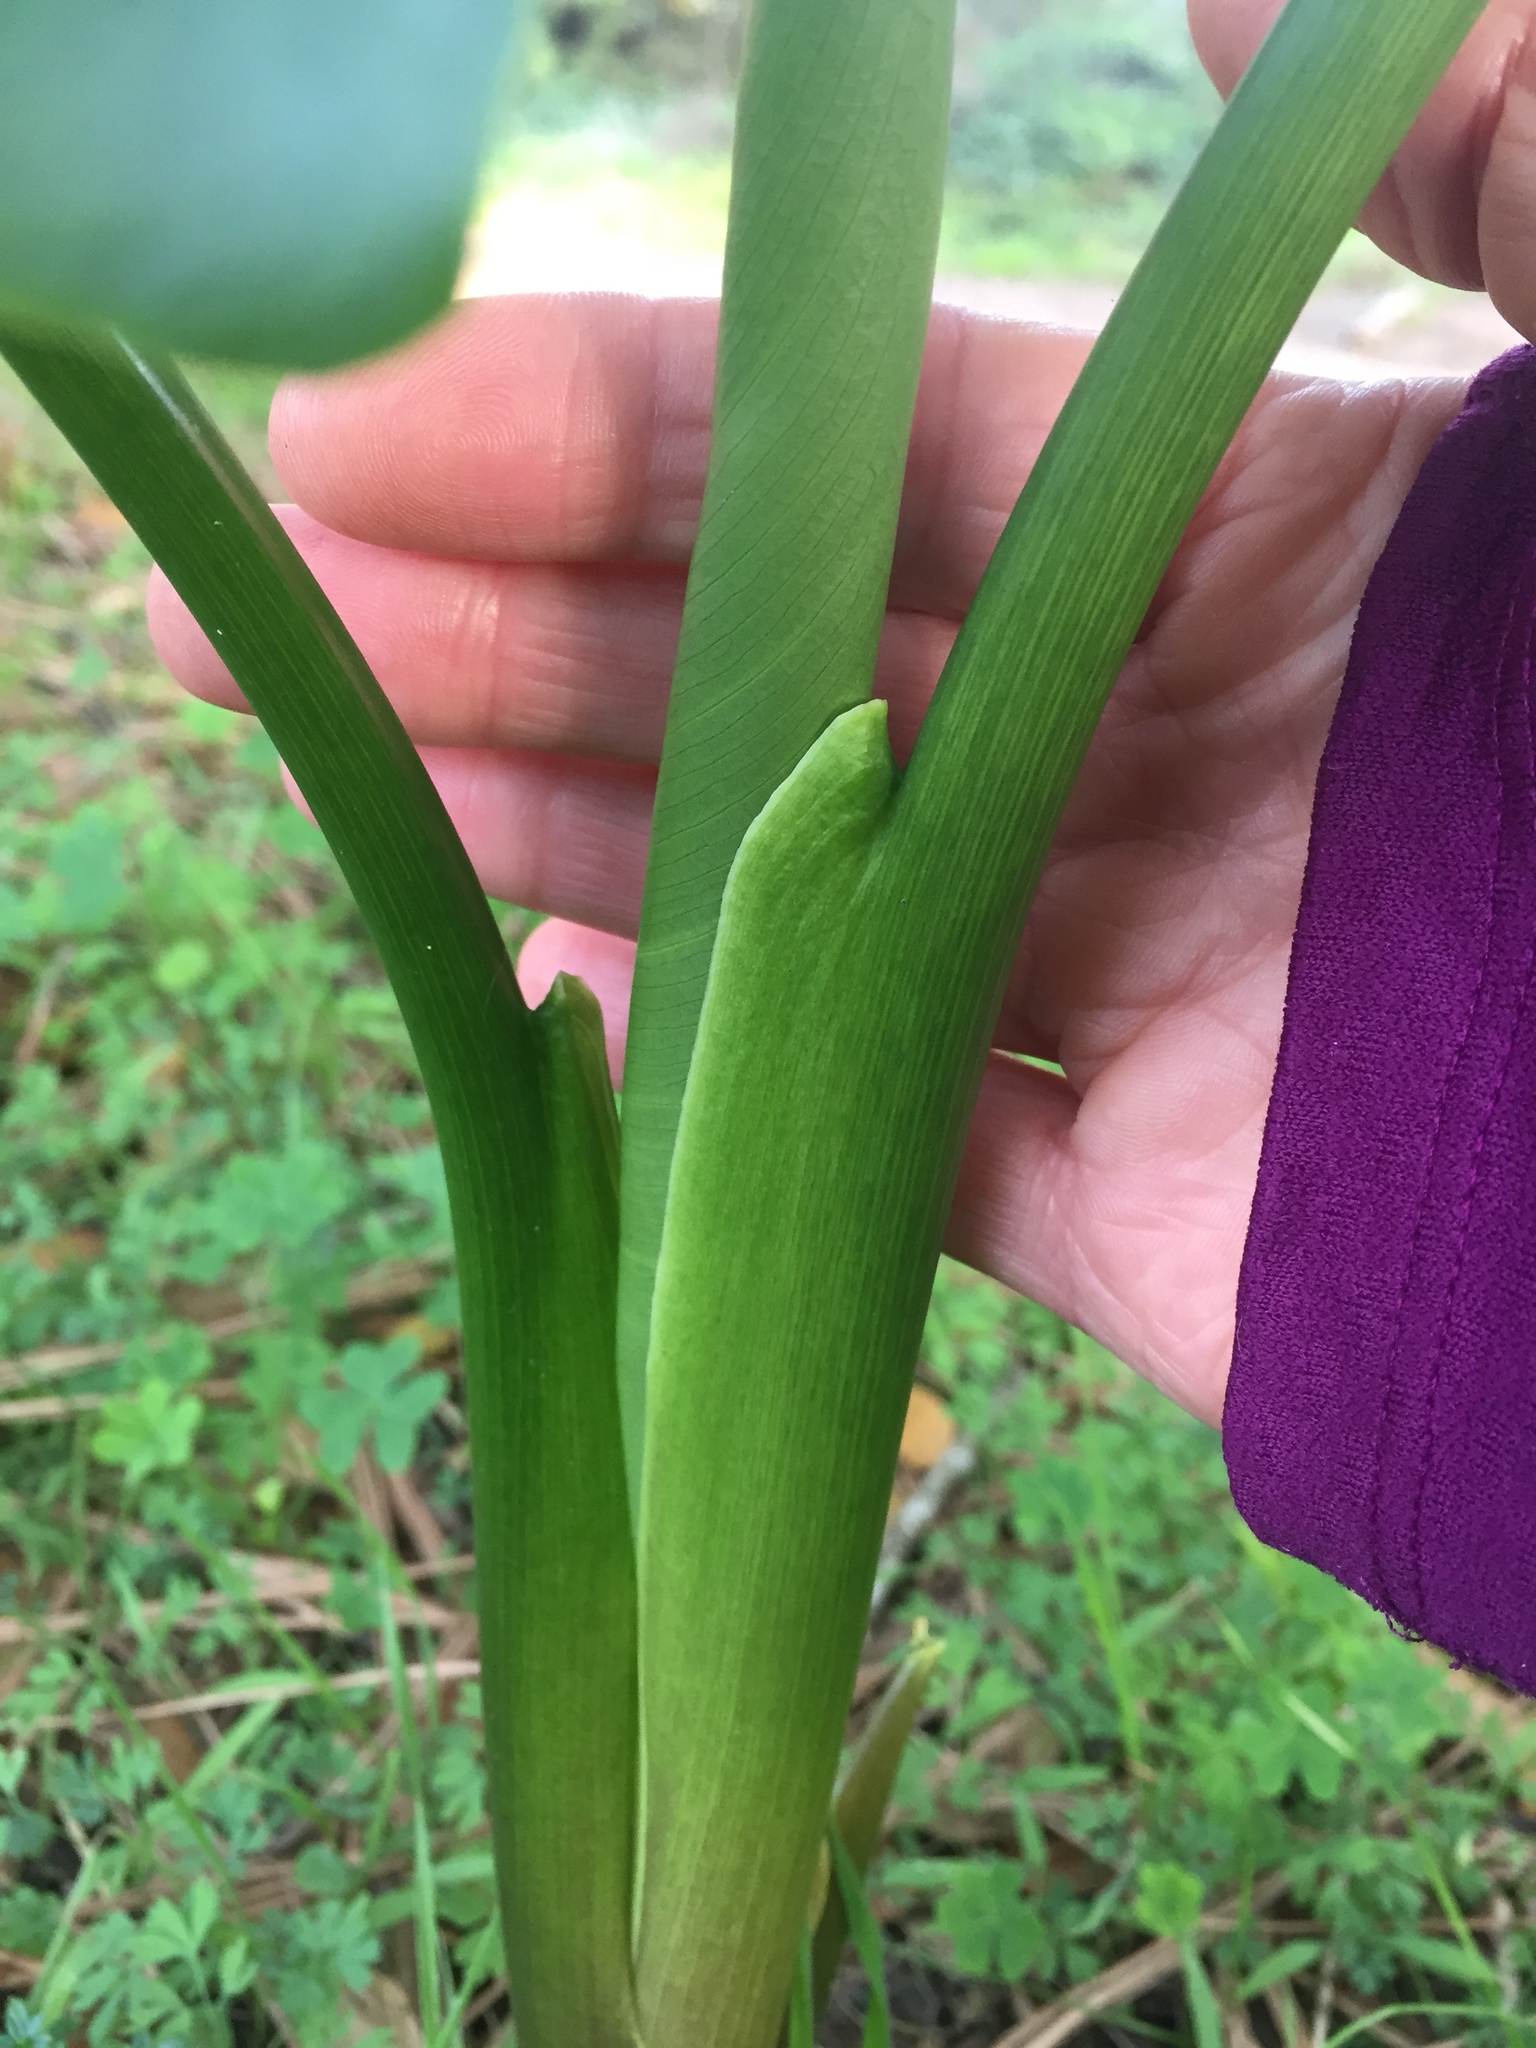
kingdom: Plantae
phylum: Tracheophyta
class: Liliopsida
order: Alismatales
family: Araceae
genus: Zantedeschia
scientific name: Zantedeschia aethiopica
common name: Altar-lily
